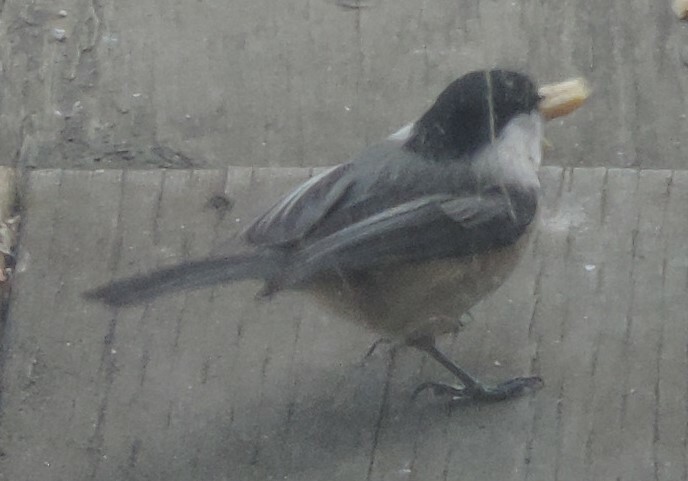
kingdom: Animalia
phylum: Chordata
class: Aves
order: Passeriformes
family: Paridae
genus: Poecile
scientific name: Poecile atricapillus
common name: Black-capped chickadee
